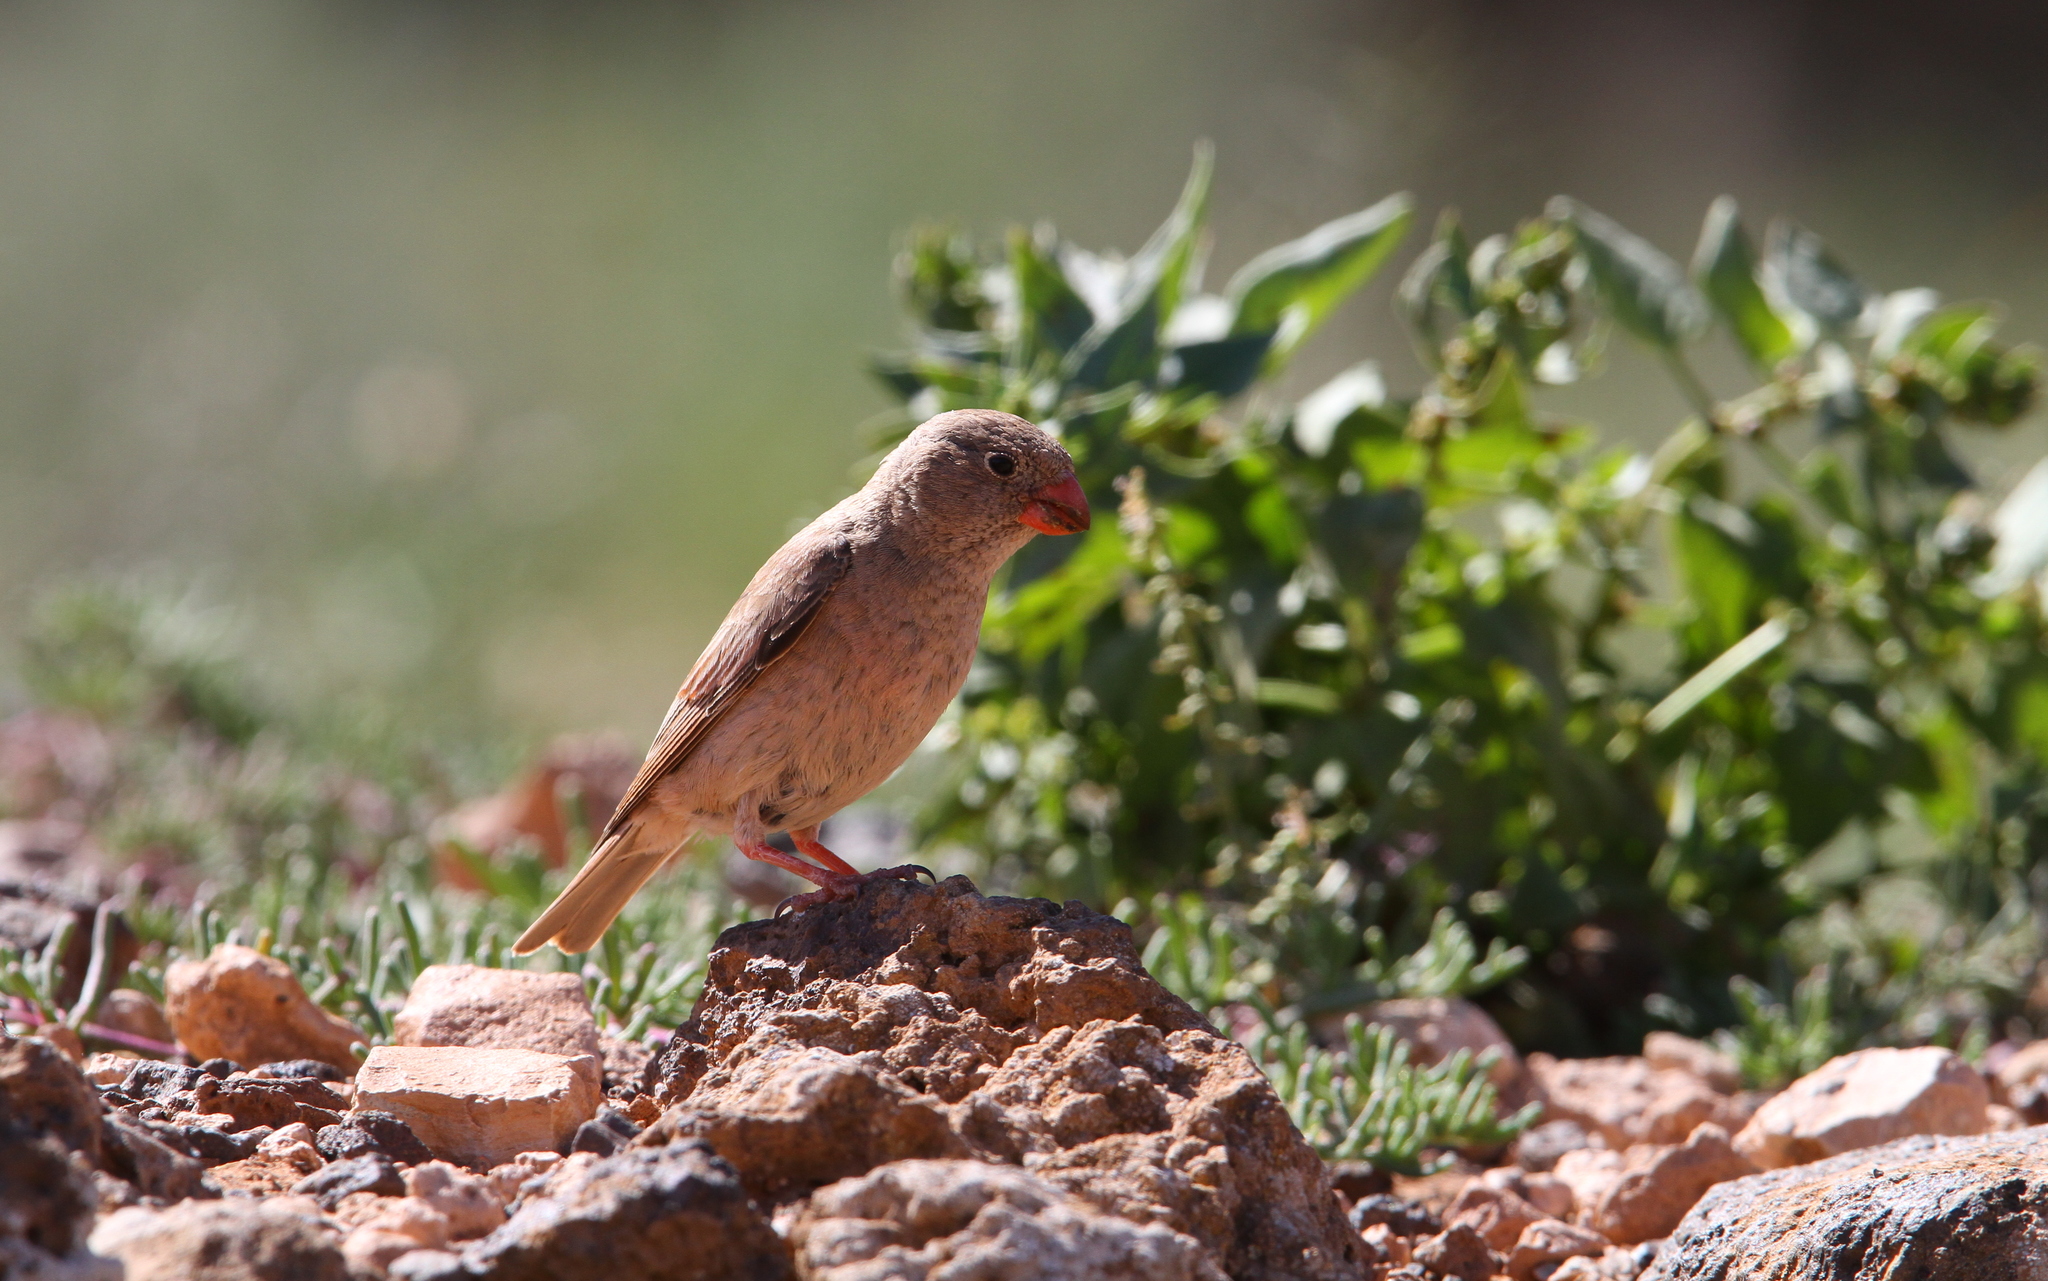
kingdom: Animalia
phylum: Chordata
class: Aves
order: Passeriformes
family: Fringillidae
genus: Bucanetes
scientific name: Bucanetes githagineus
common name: Trumpeter finch
